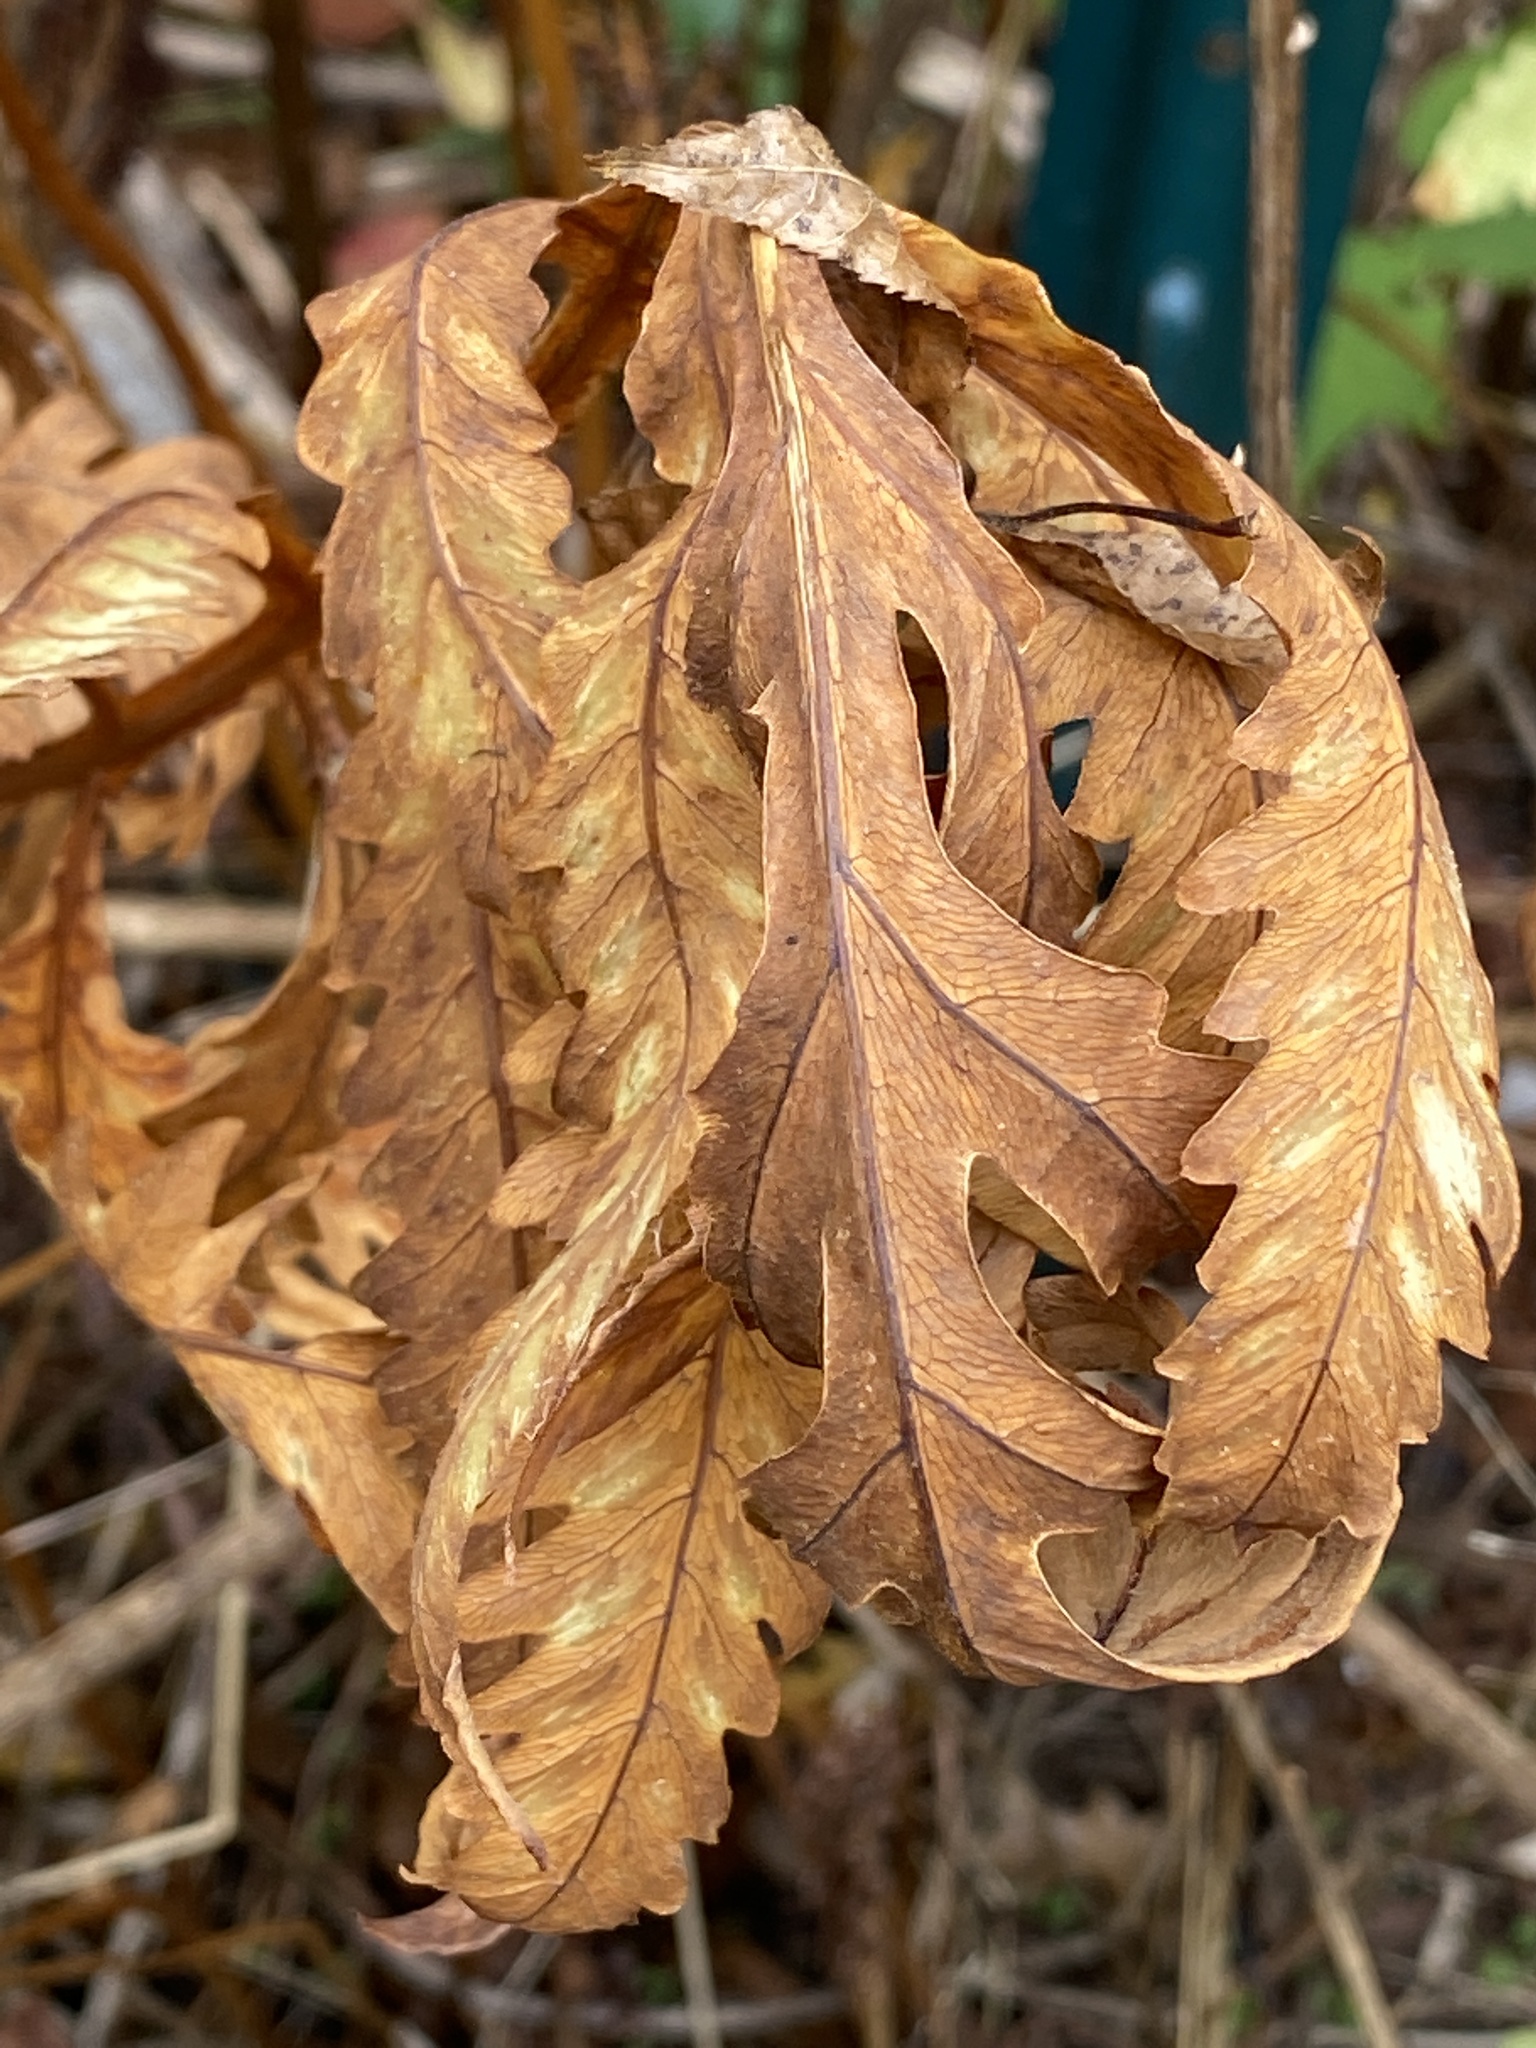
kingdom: Plantae
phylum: Tracheophyta
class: Polypodiopsida
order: Polypodiales
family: Onocleaceae
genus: Onoclea
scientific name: Onoclea sensibilis
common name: Sensitive fern
